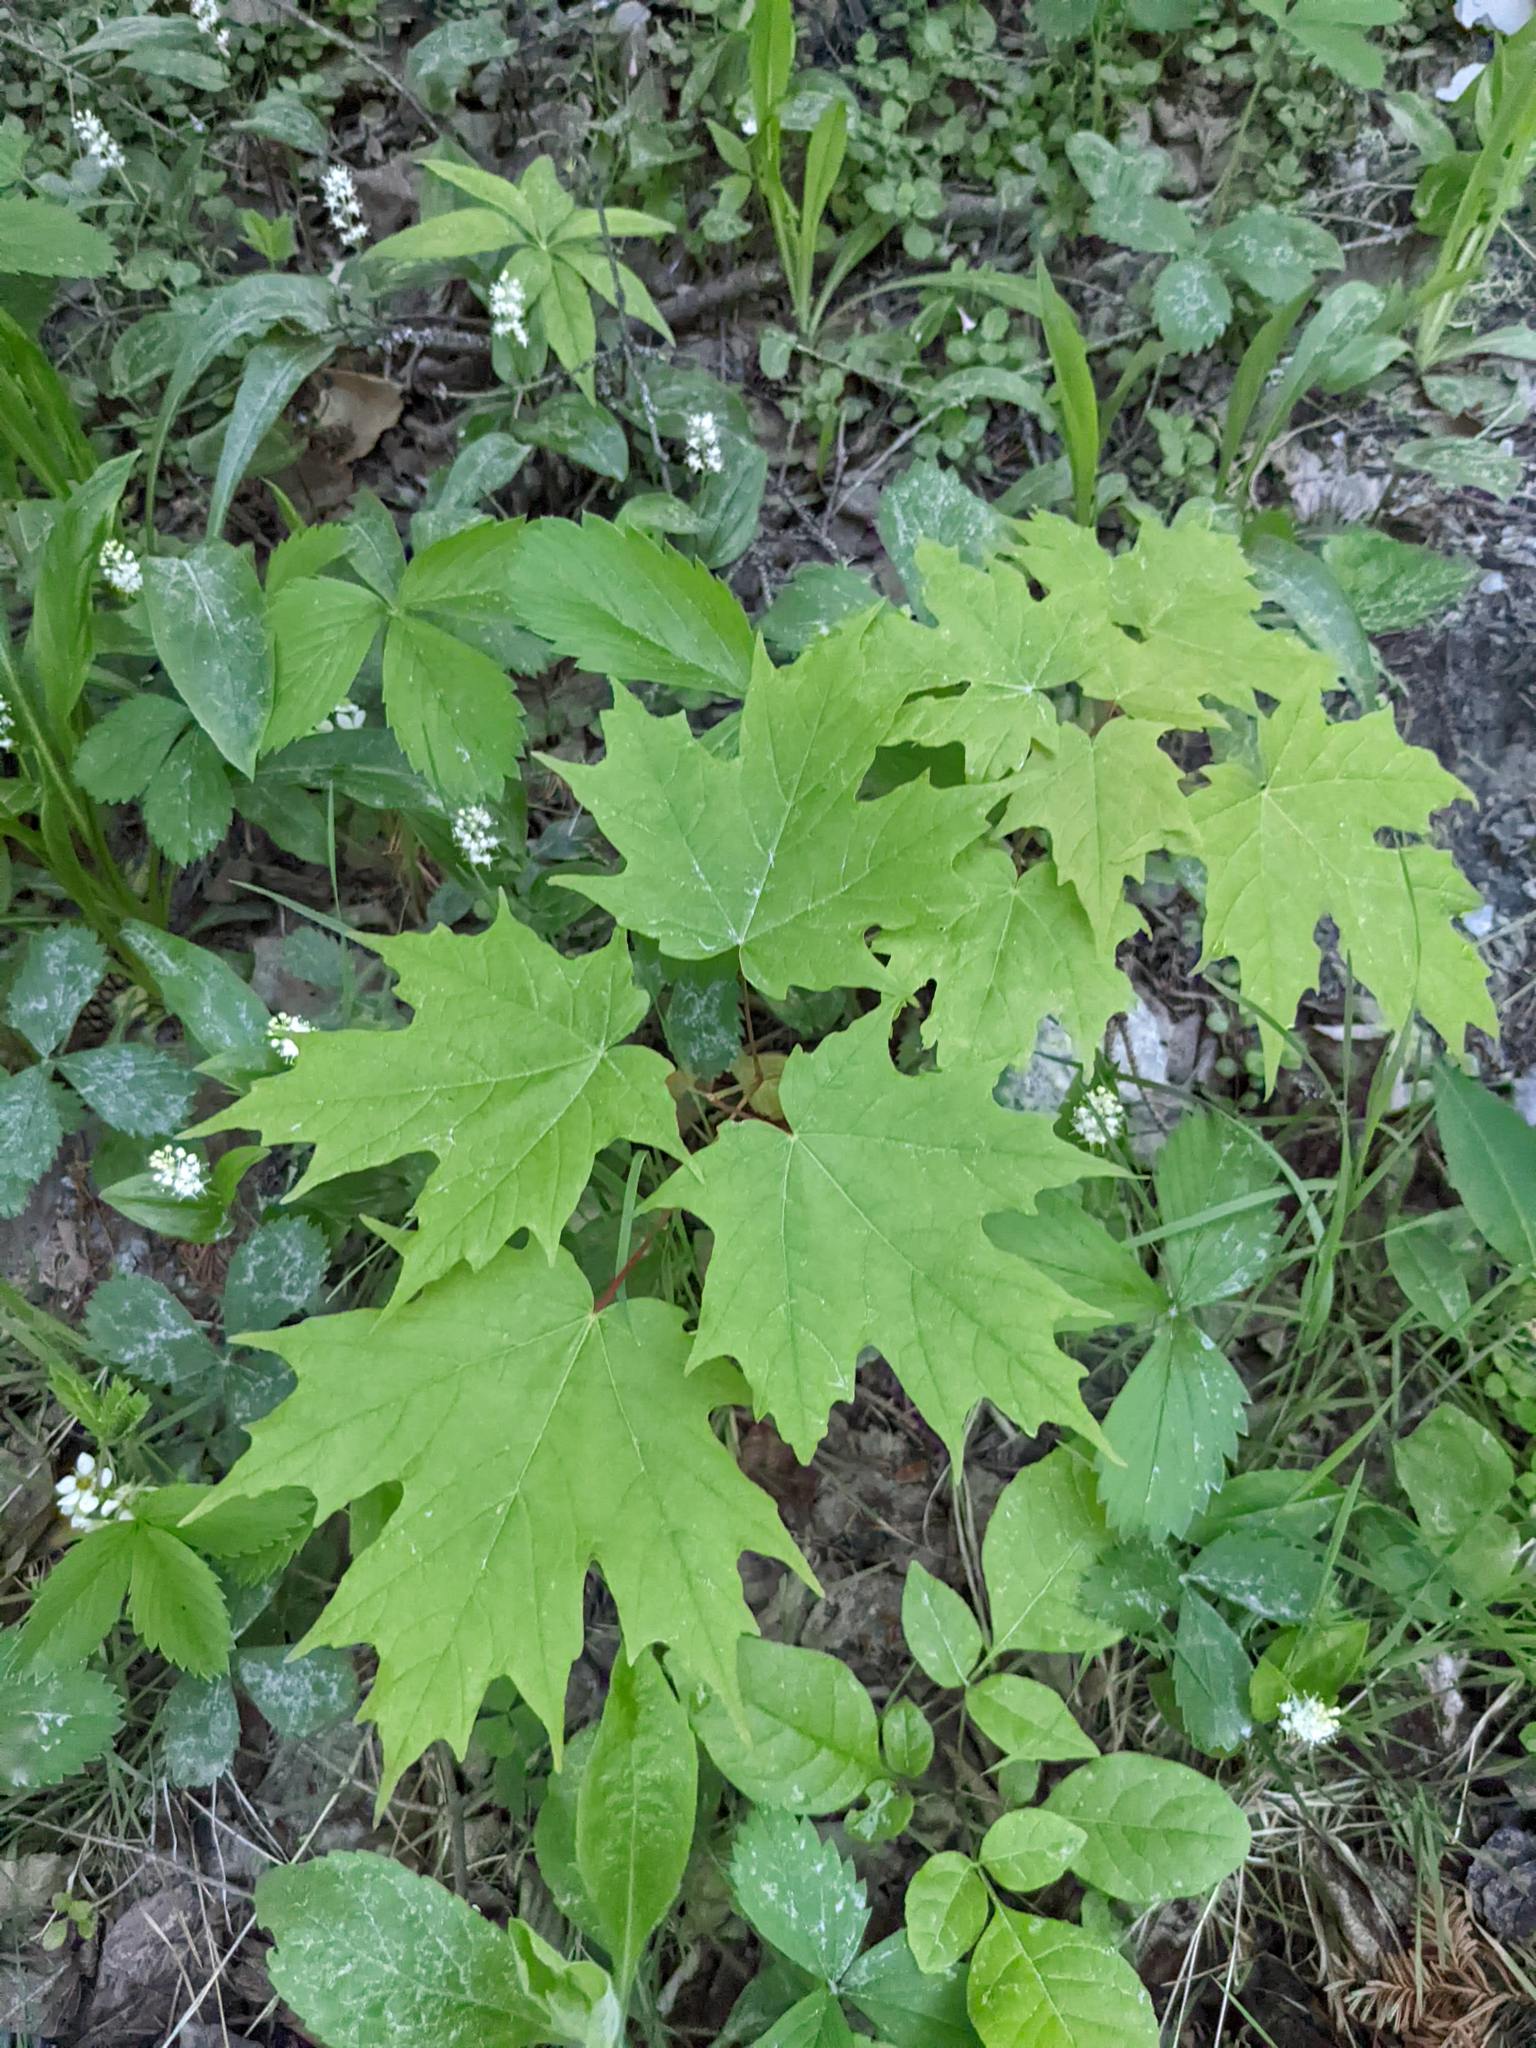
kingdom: Plantae
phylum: Tracheophyta
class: Magnoliopsida
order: Sapindales
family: Sapindaceae
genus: Acer
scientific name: Acer saccharum
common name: Sugar maple
